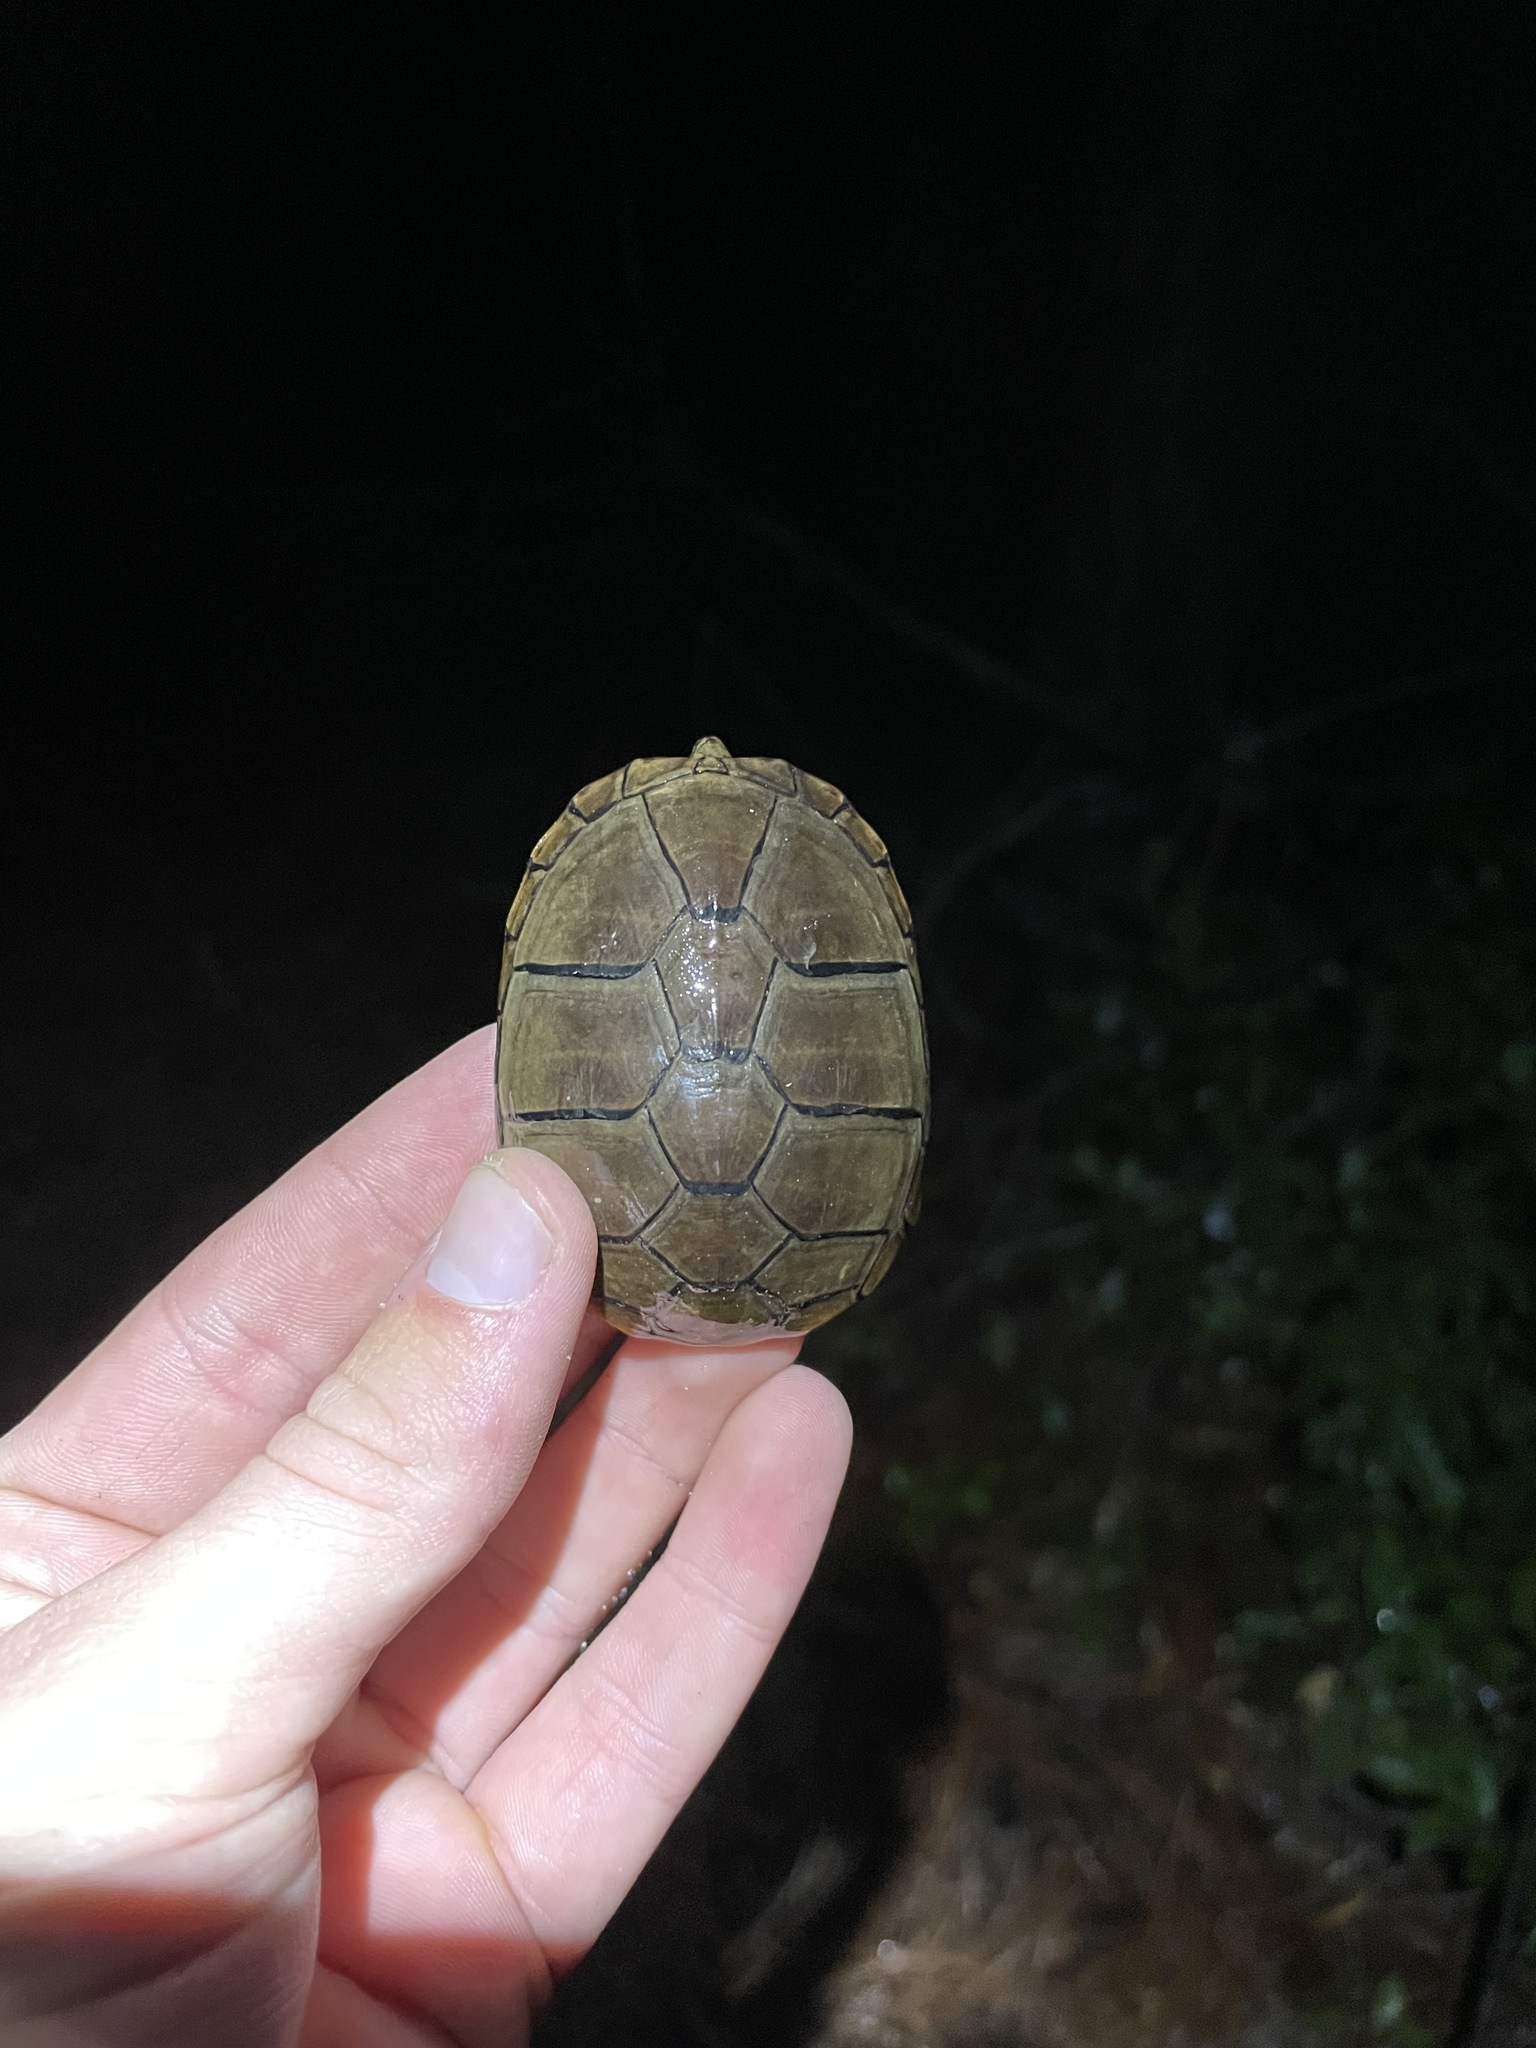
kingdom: Animalia
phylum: Chordata
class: Testudines
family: Kinosternidae
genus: Kinosternon
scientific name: Kinosternon subrubrum
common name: Eastern mud turtle
